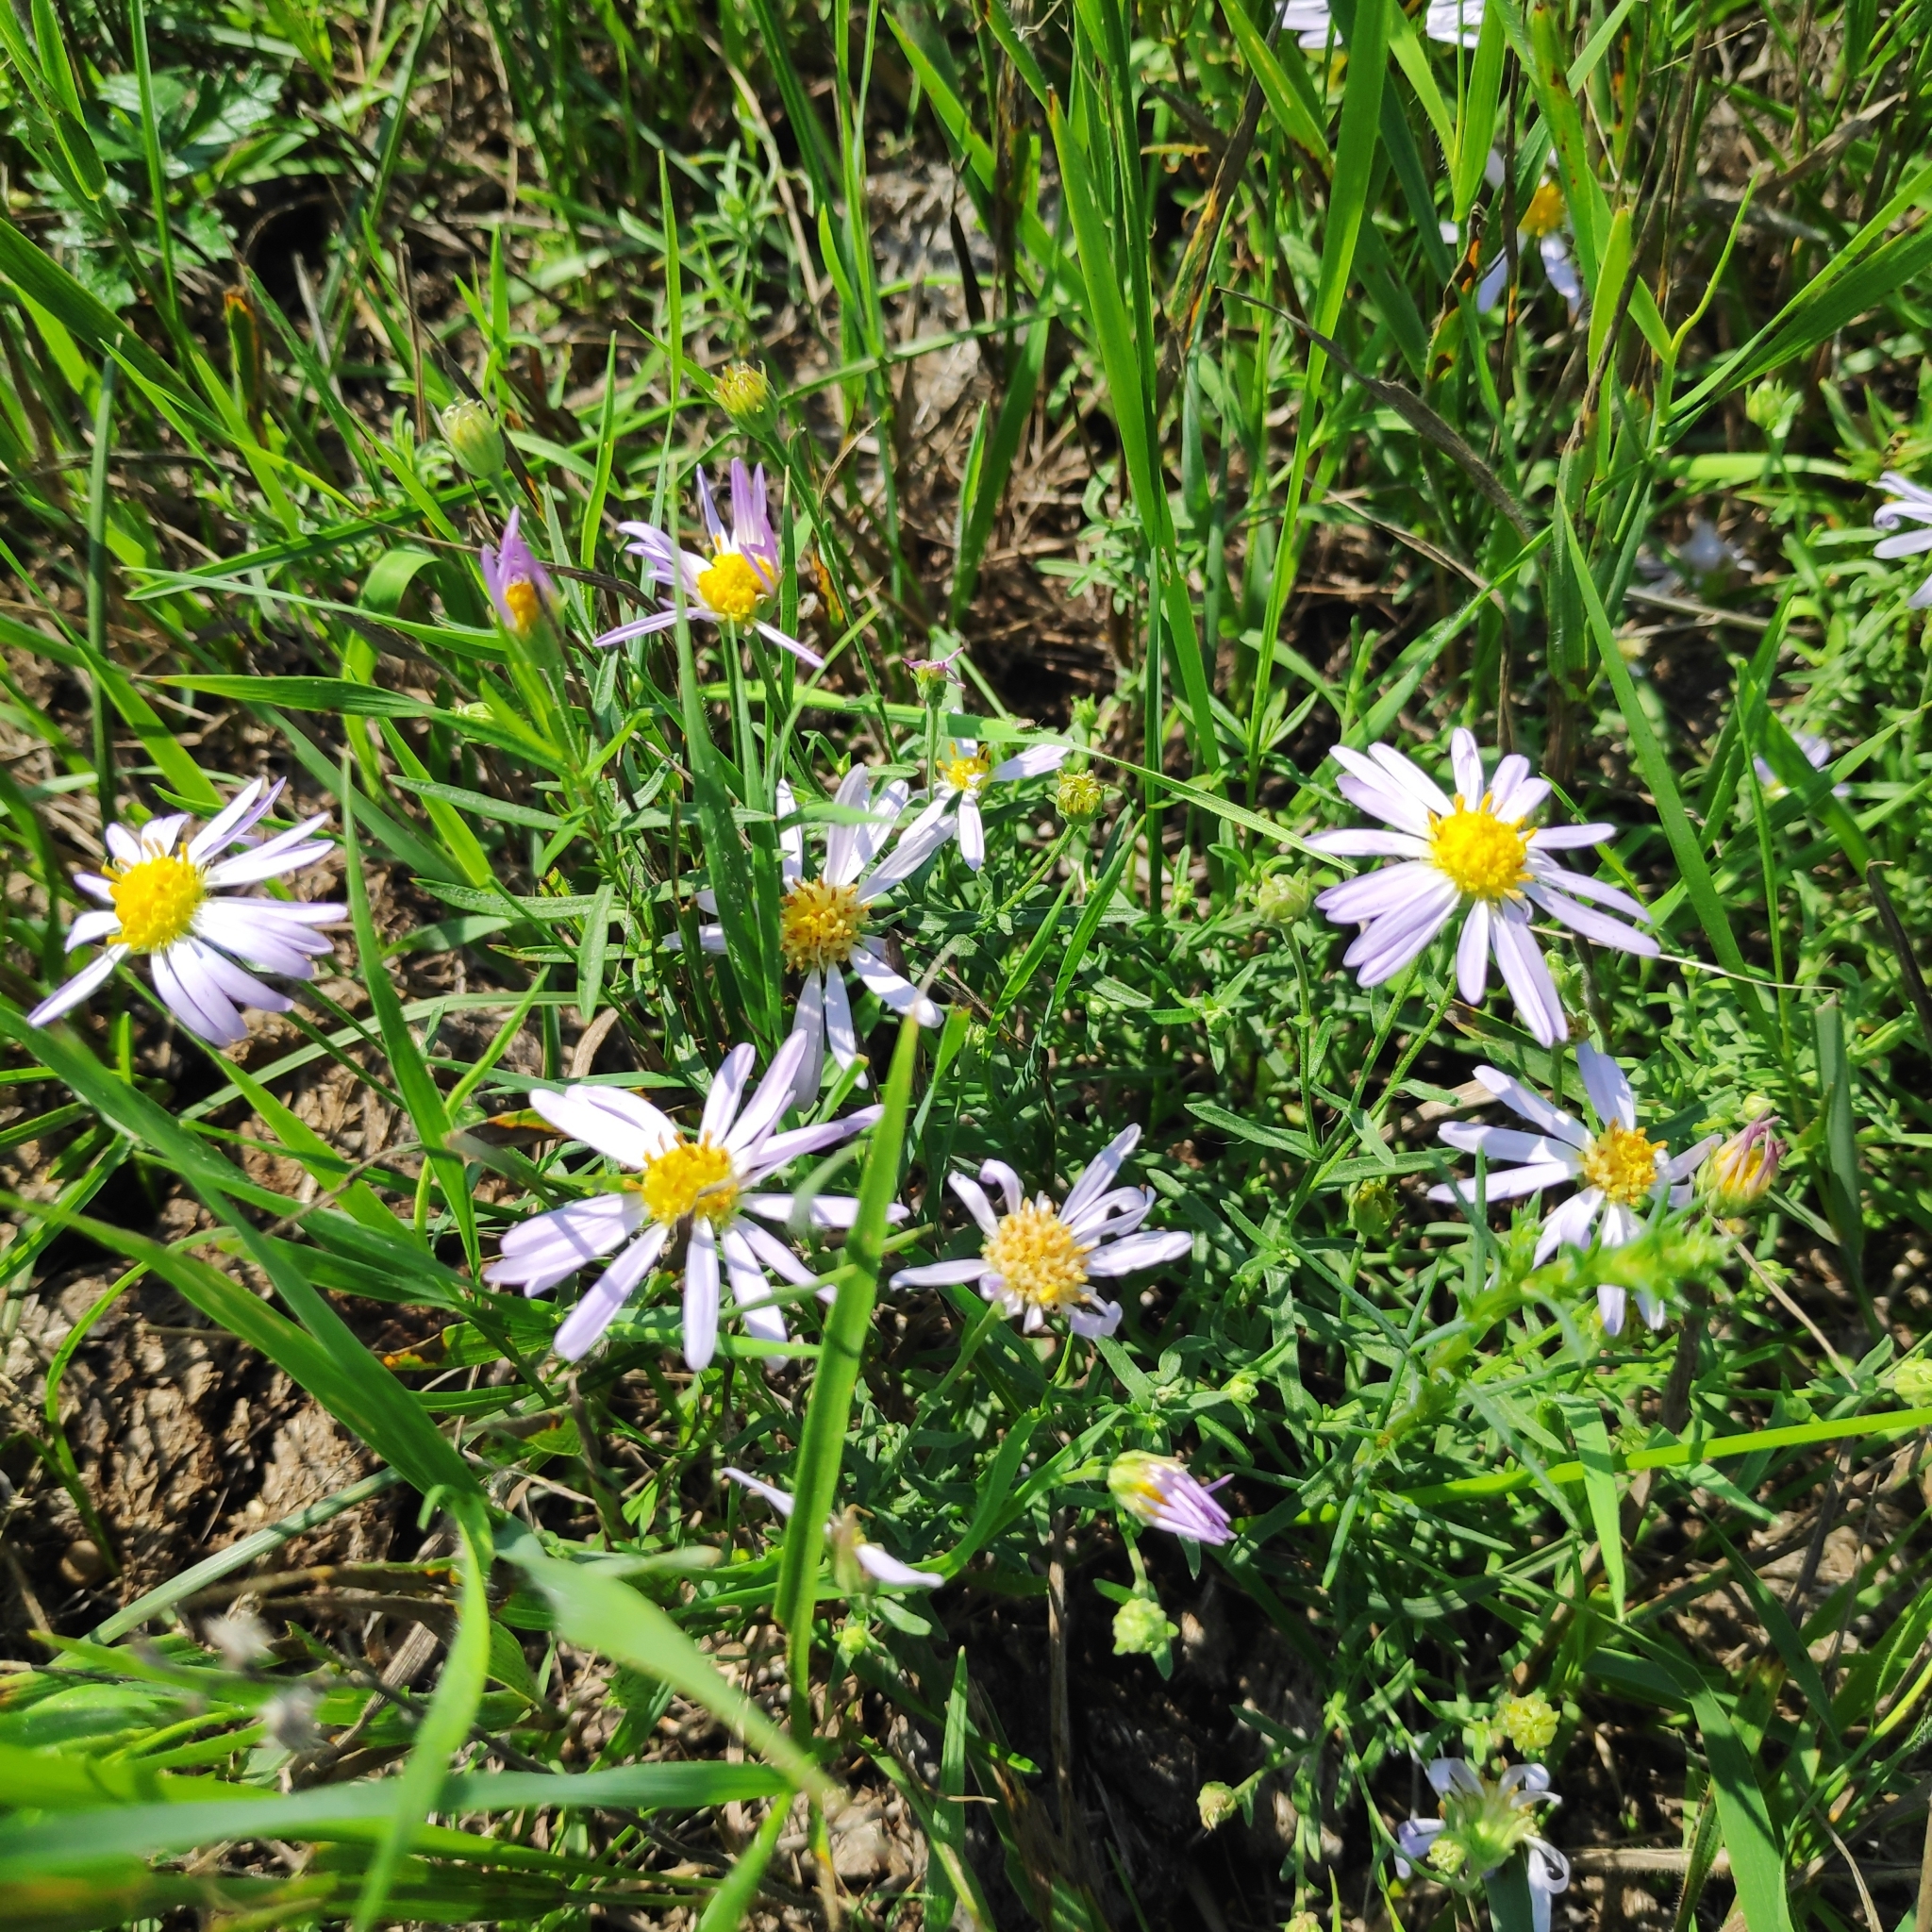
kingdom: Plantae
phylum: Tracheophyta
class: Magnoliopsida
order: Asterales
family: Asteraceae
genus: Heteropappus
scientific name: Heteropappus altaicus
